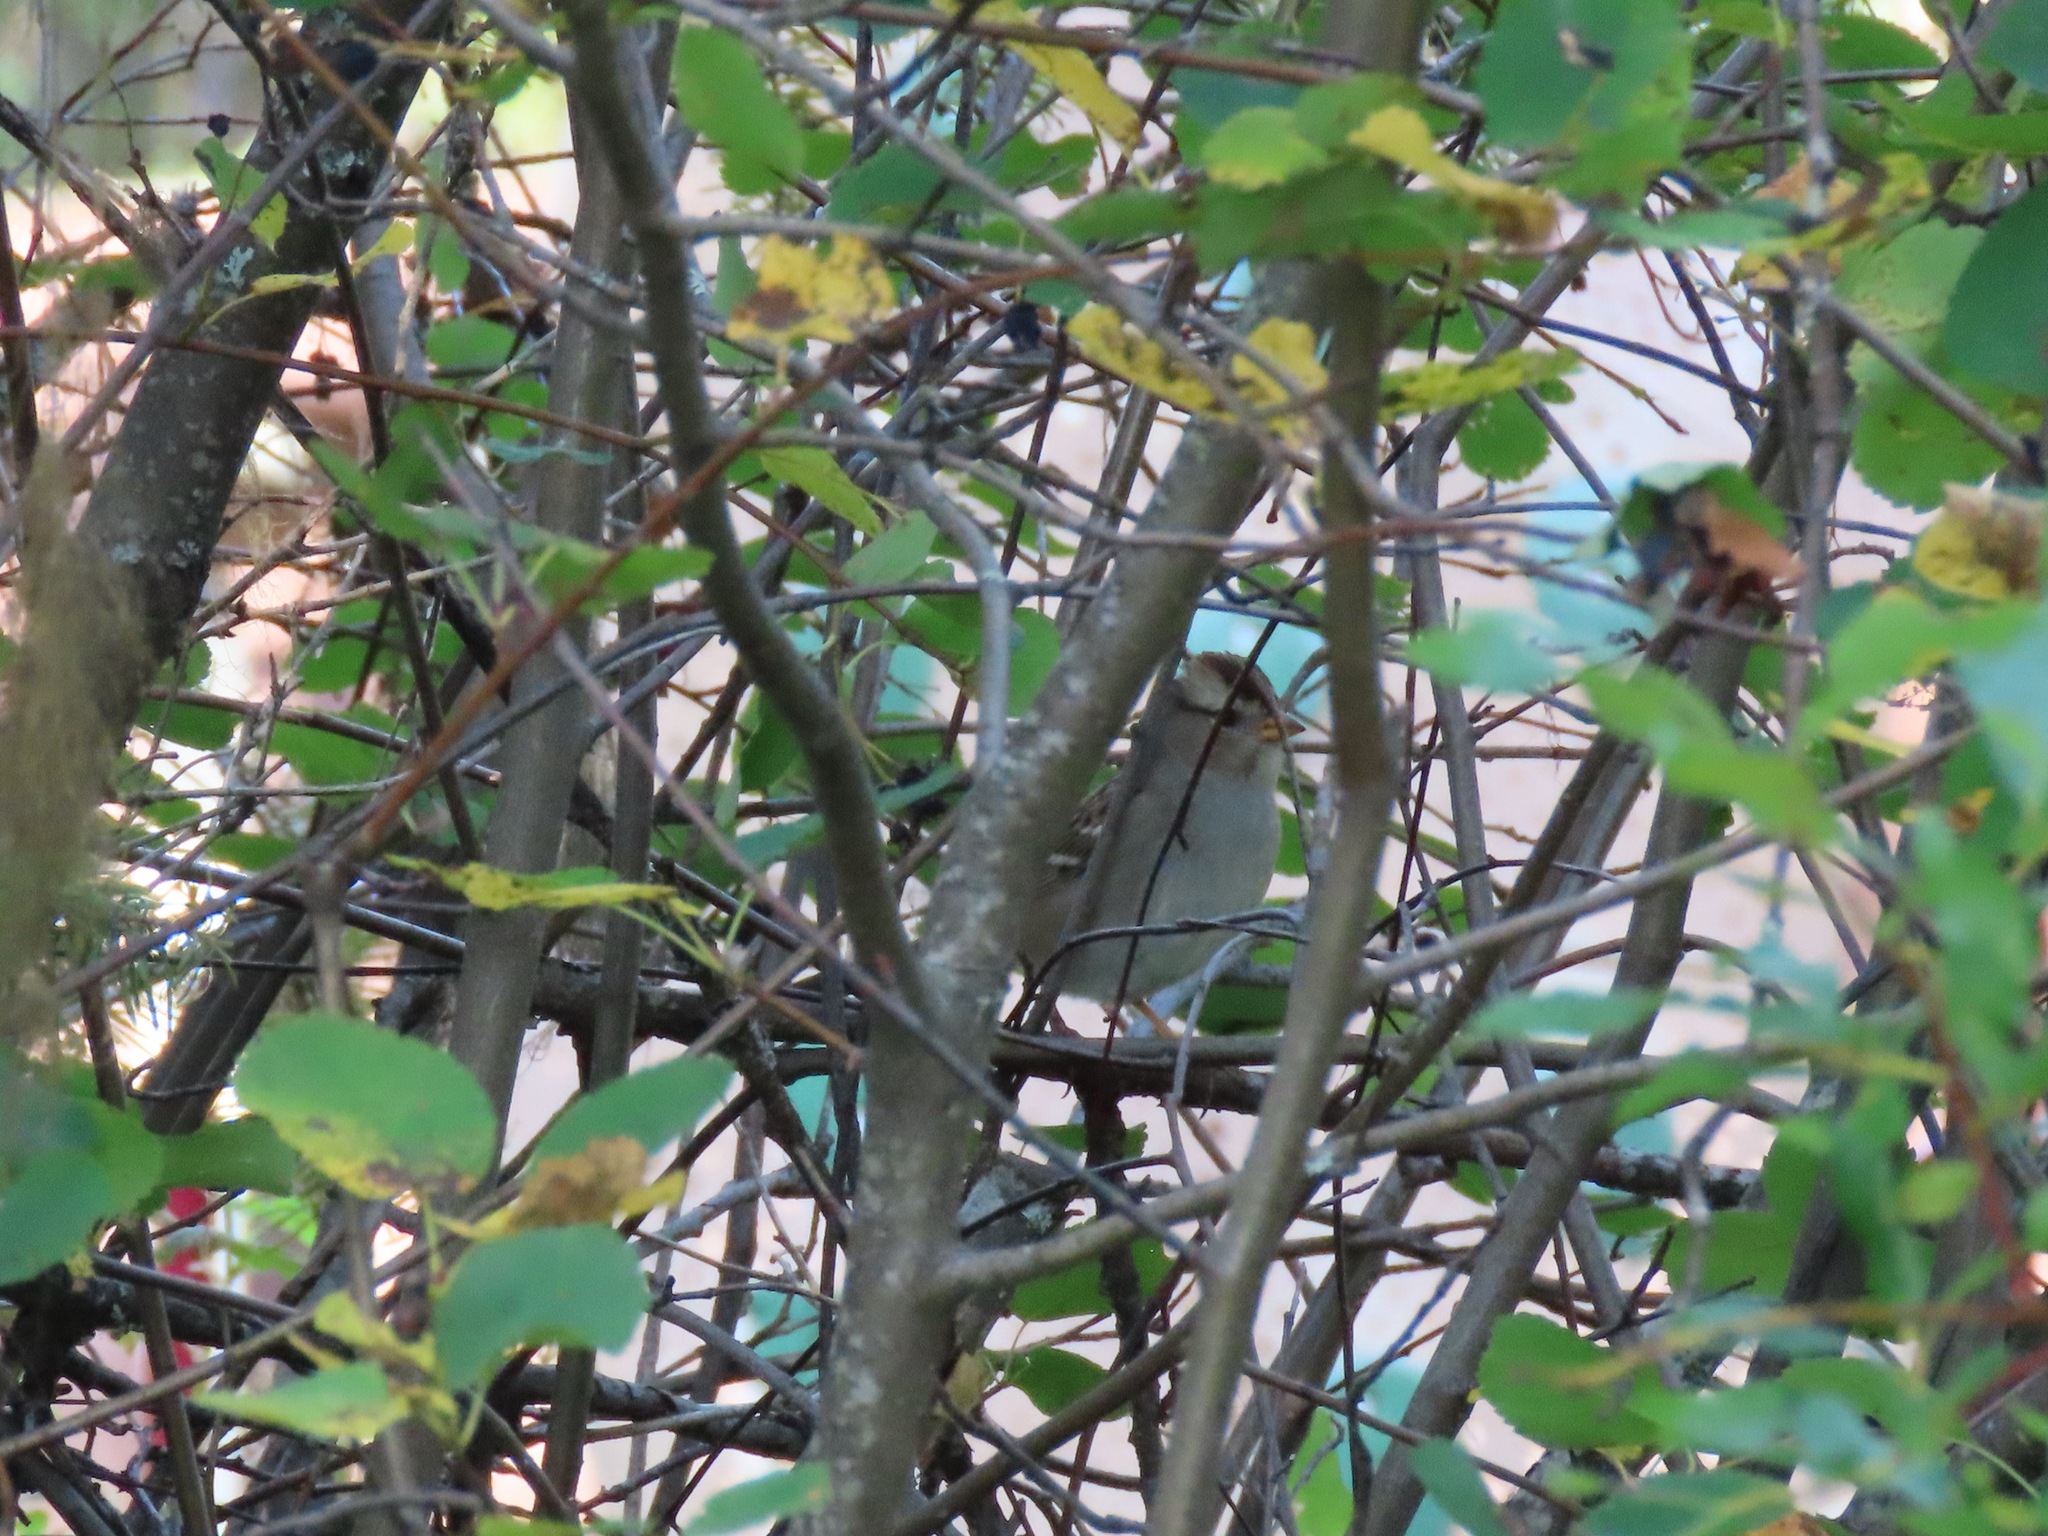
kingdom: Animalia
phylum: Chordata
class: Aves
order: Passeriformes
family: Passerellidae
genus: Zonotrichia
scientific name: Zonotrichia leucophrys
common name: White-crowned sparrow
